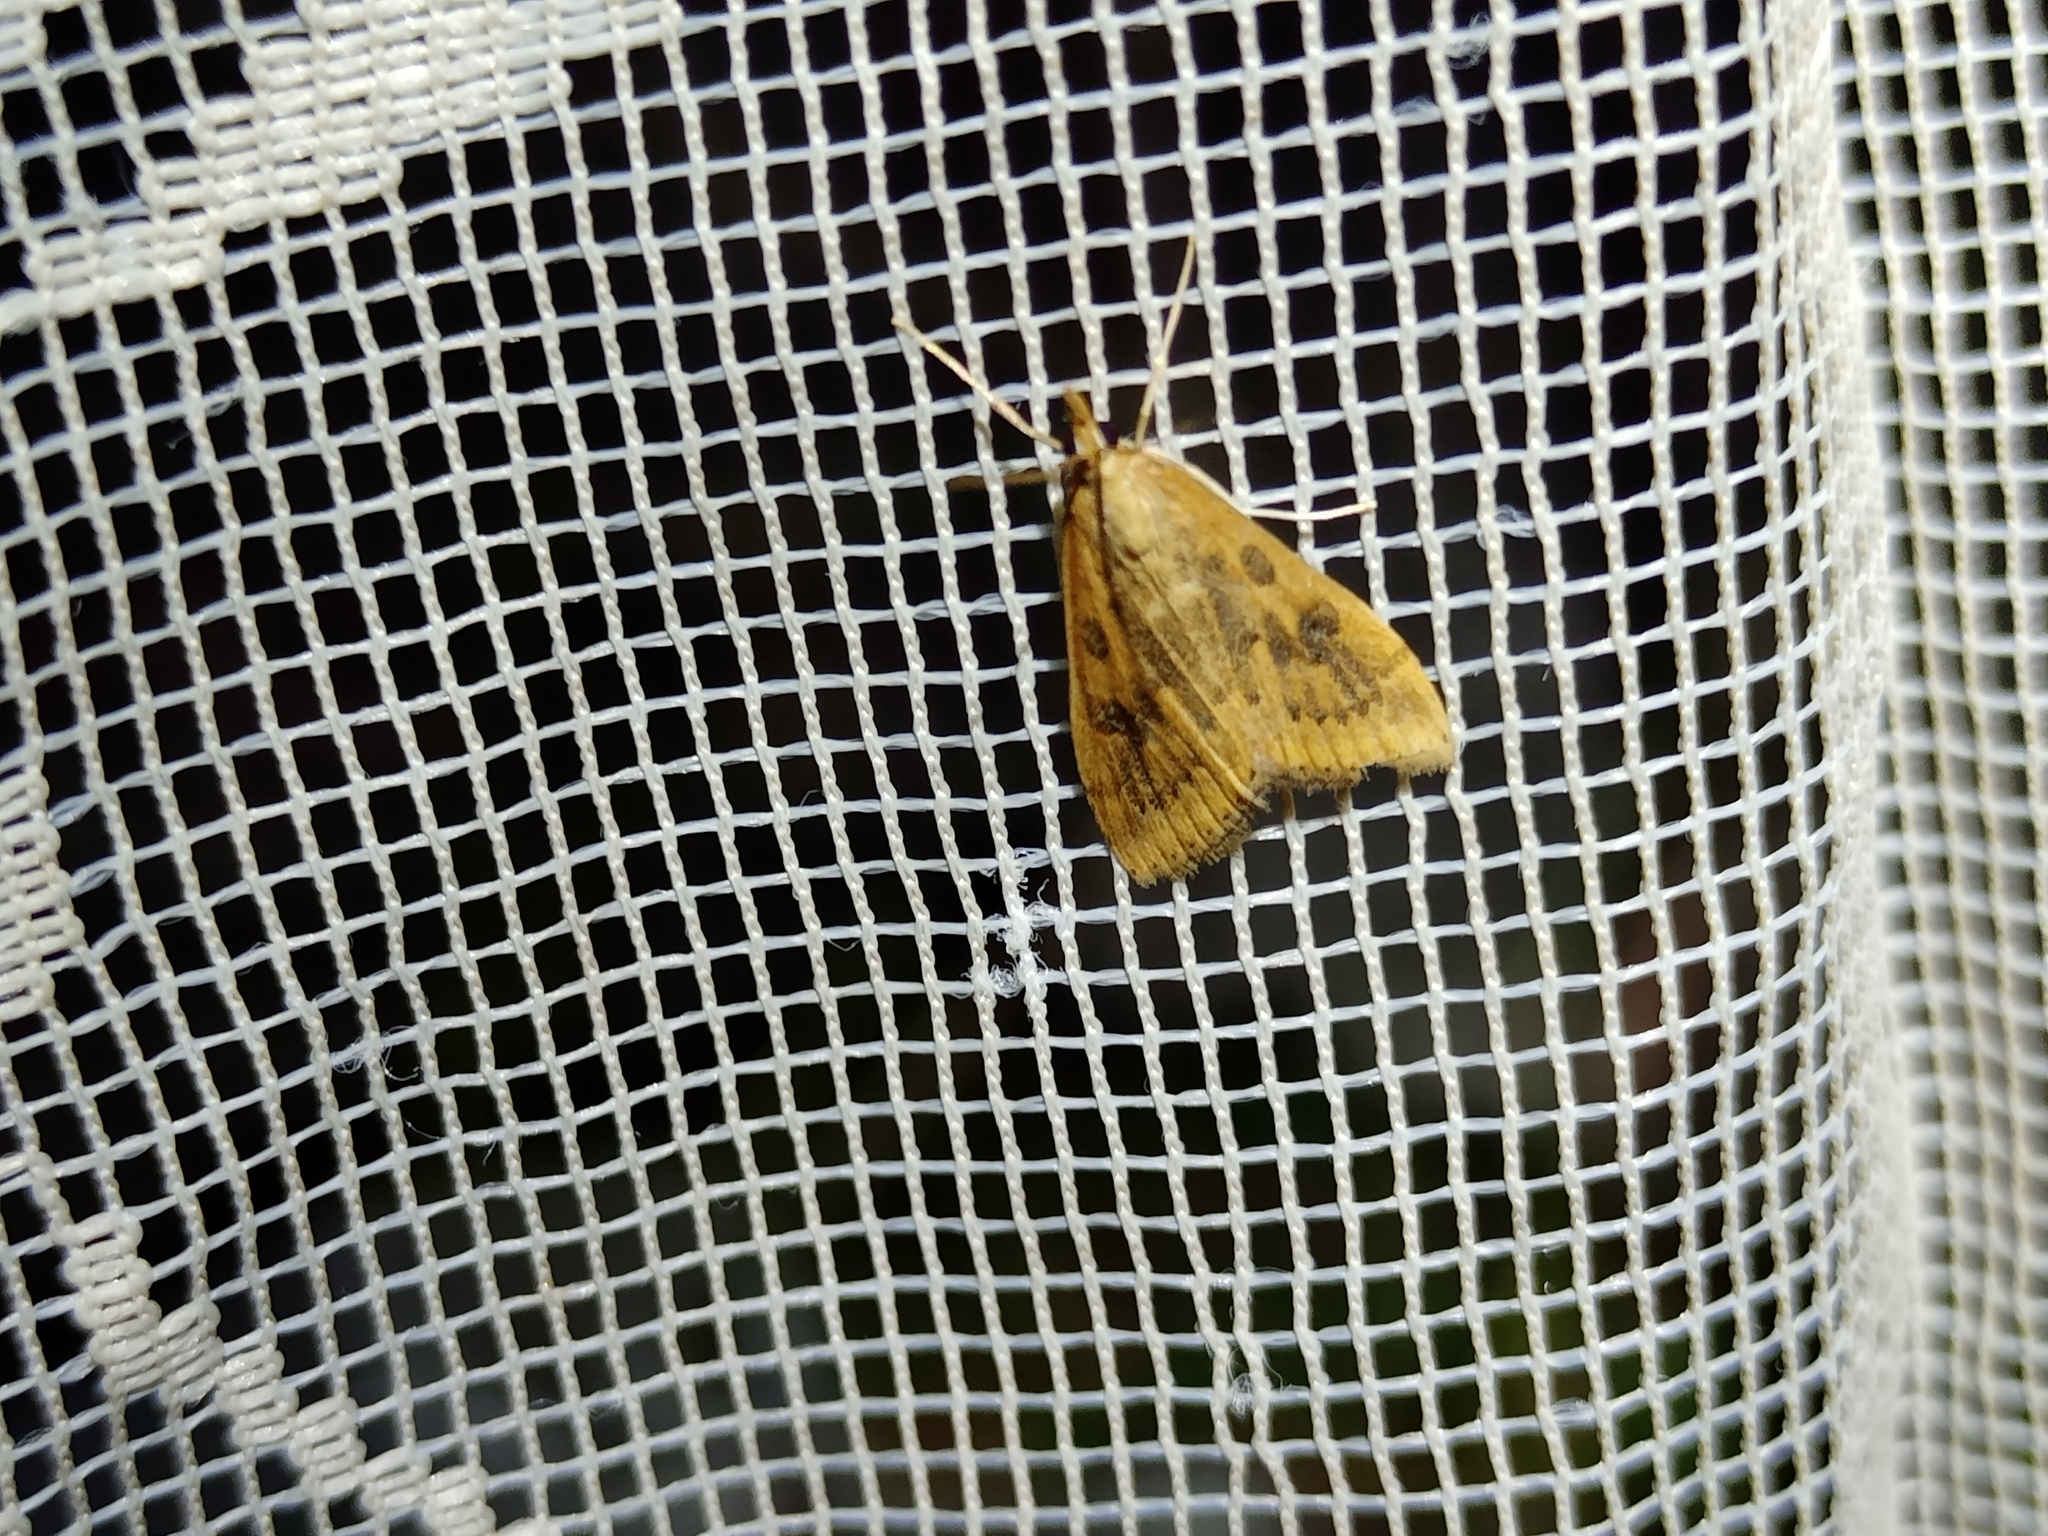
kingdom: Animalia
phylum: Arthropoda
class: Insecta
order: Lepidoptera
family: Crambidae
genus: Udea
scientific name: Udea ferrugalis
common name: Rusty dot
